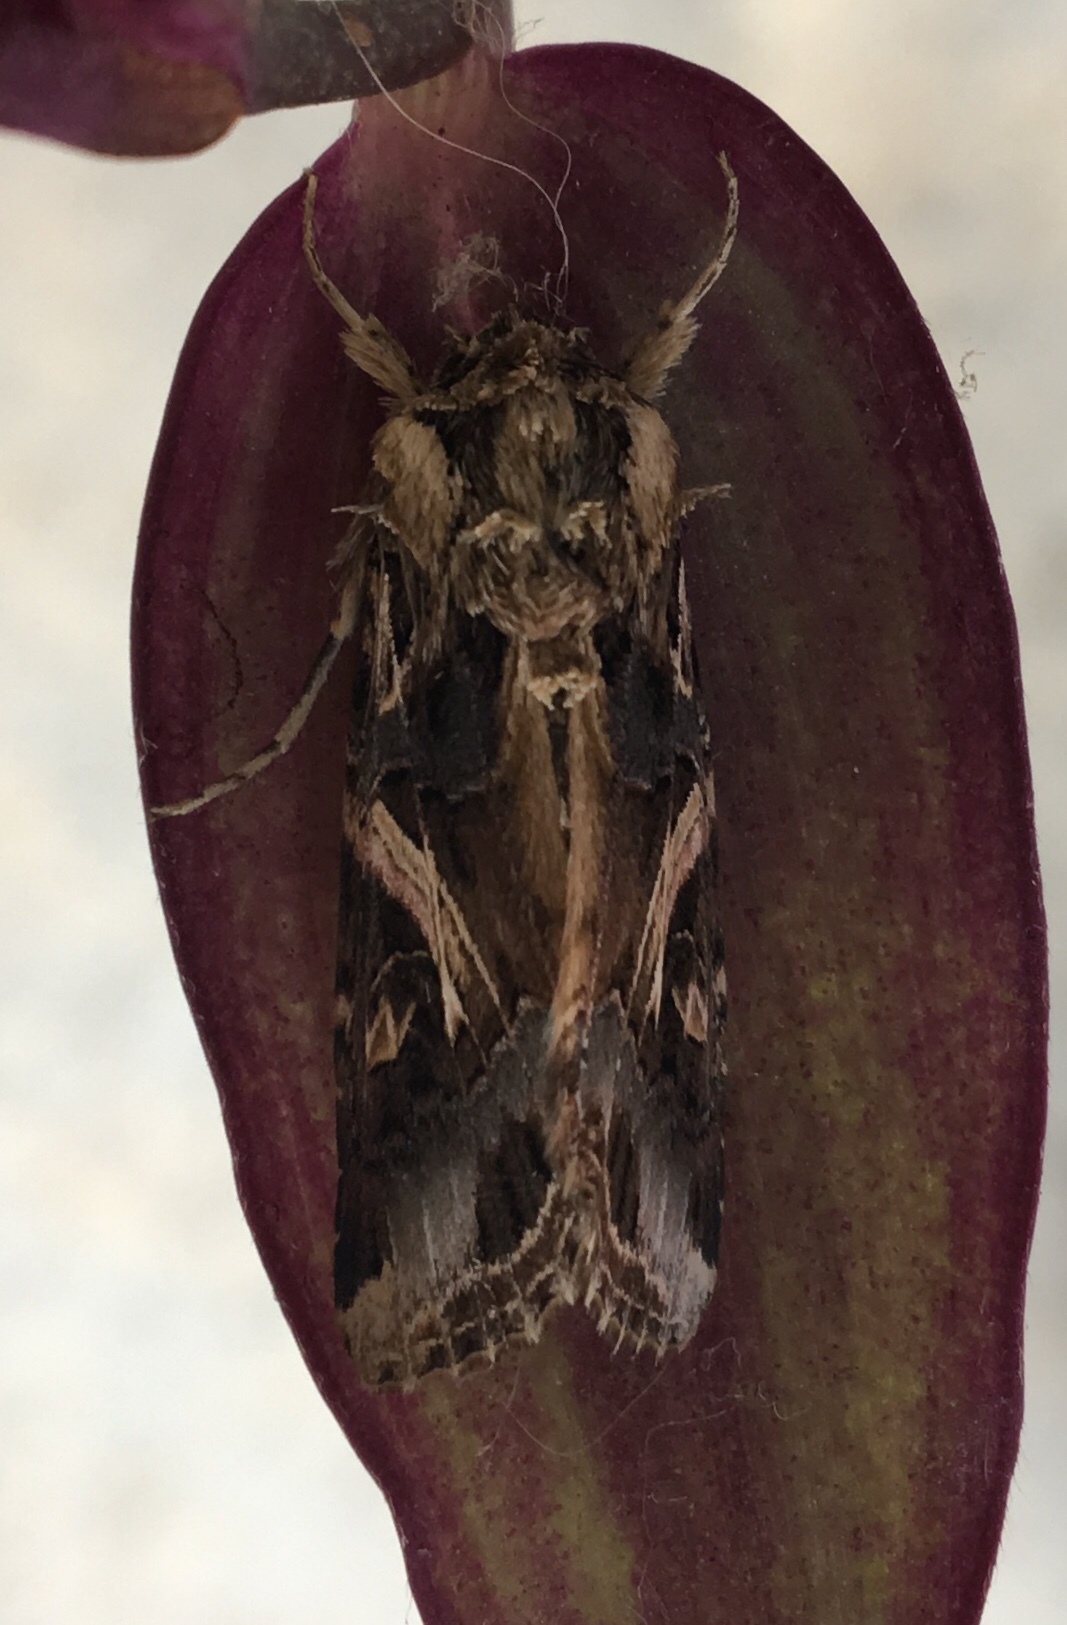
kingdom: Animalia
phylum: Arthropoda
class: Insecta
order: Lepidoptera
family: Noctuidae
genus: Spodoptera
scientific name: Spodoptera litura
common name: Asian cotton leafworm
